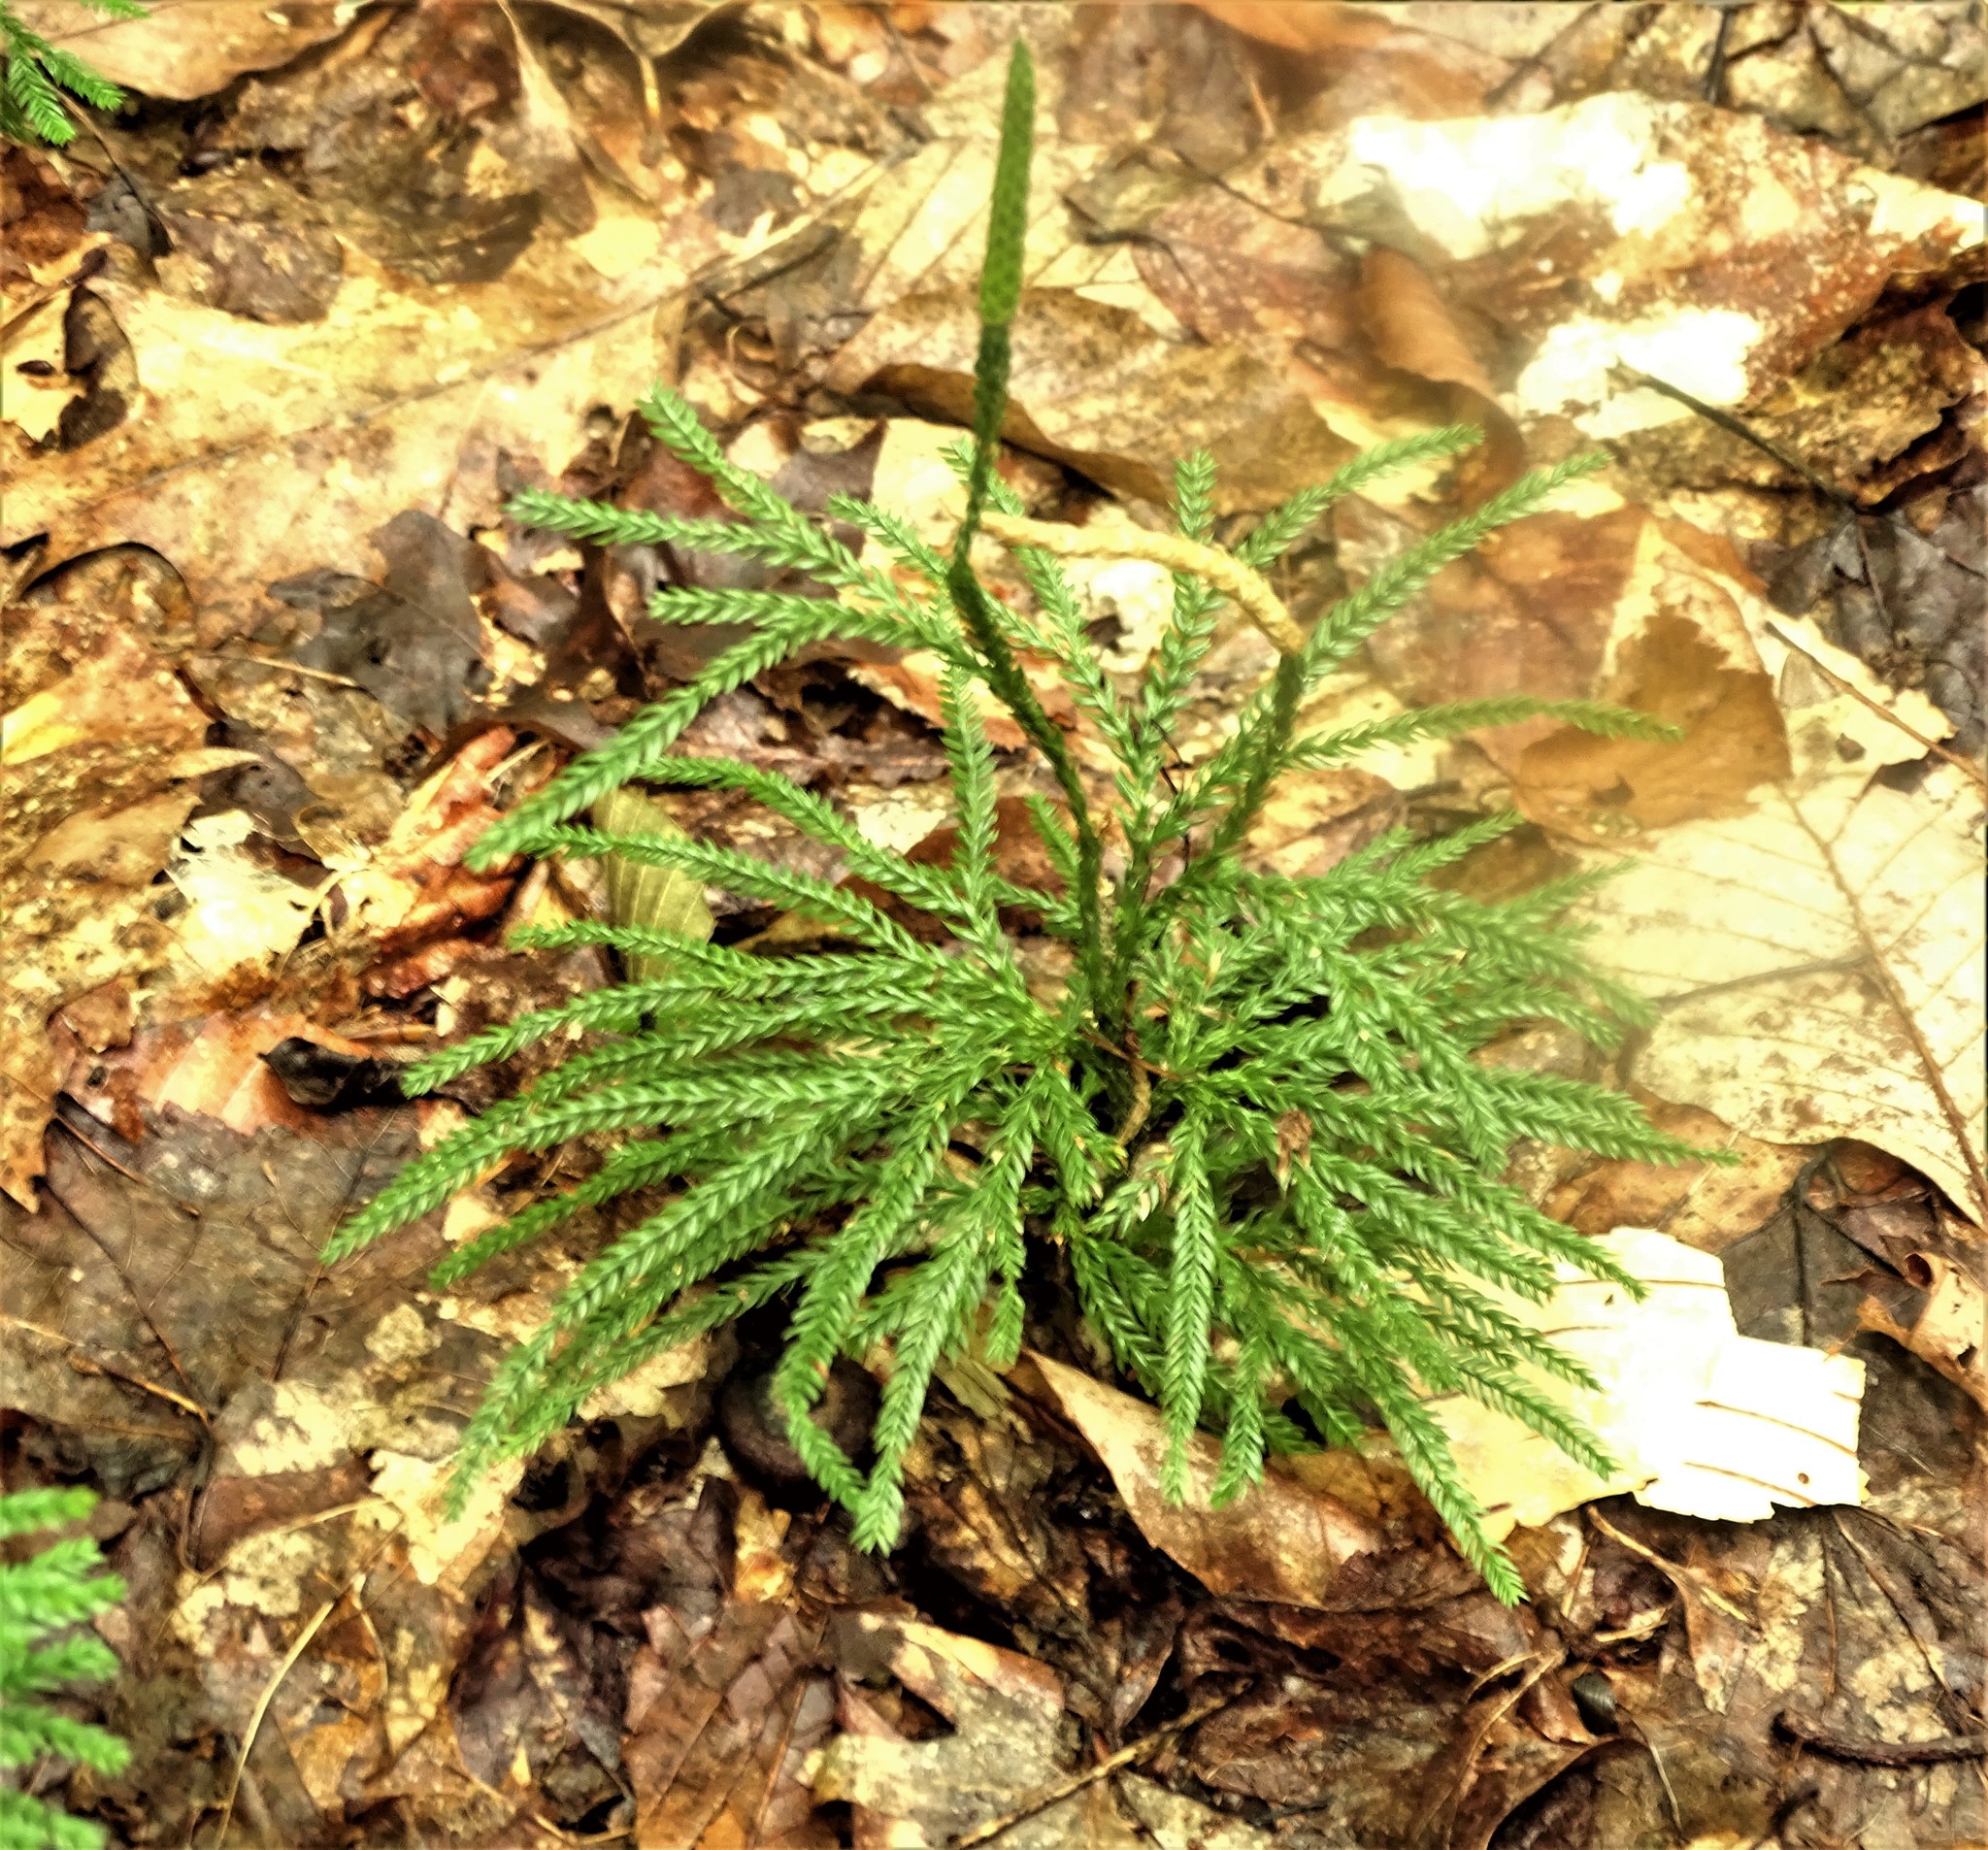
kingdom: Plantae
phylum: Tracheophyta
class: Lycopodiopsida
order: Lycopodiales
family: Lycopodiaceae
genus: Dendrolycopodium
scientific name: Dendrolycopodium obscurum
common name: Common ground-pine
